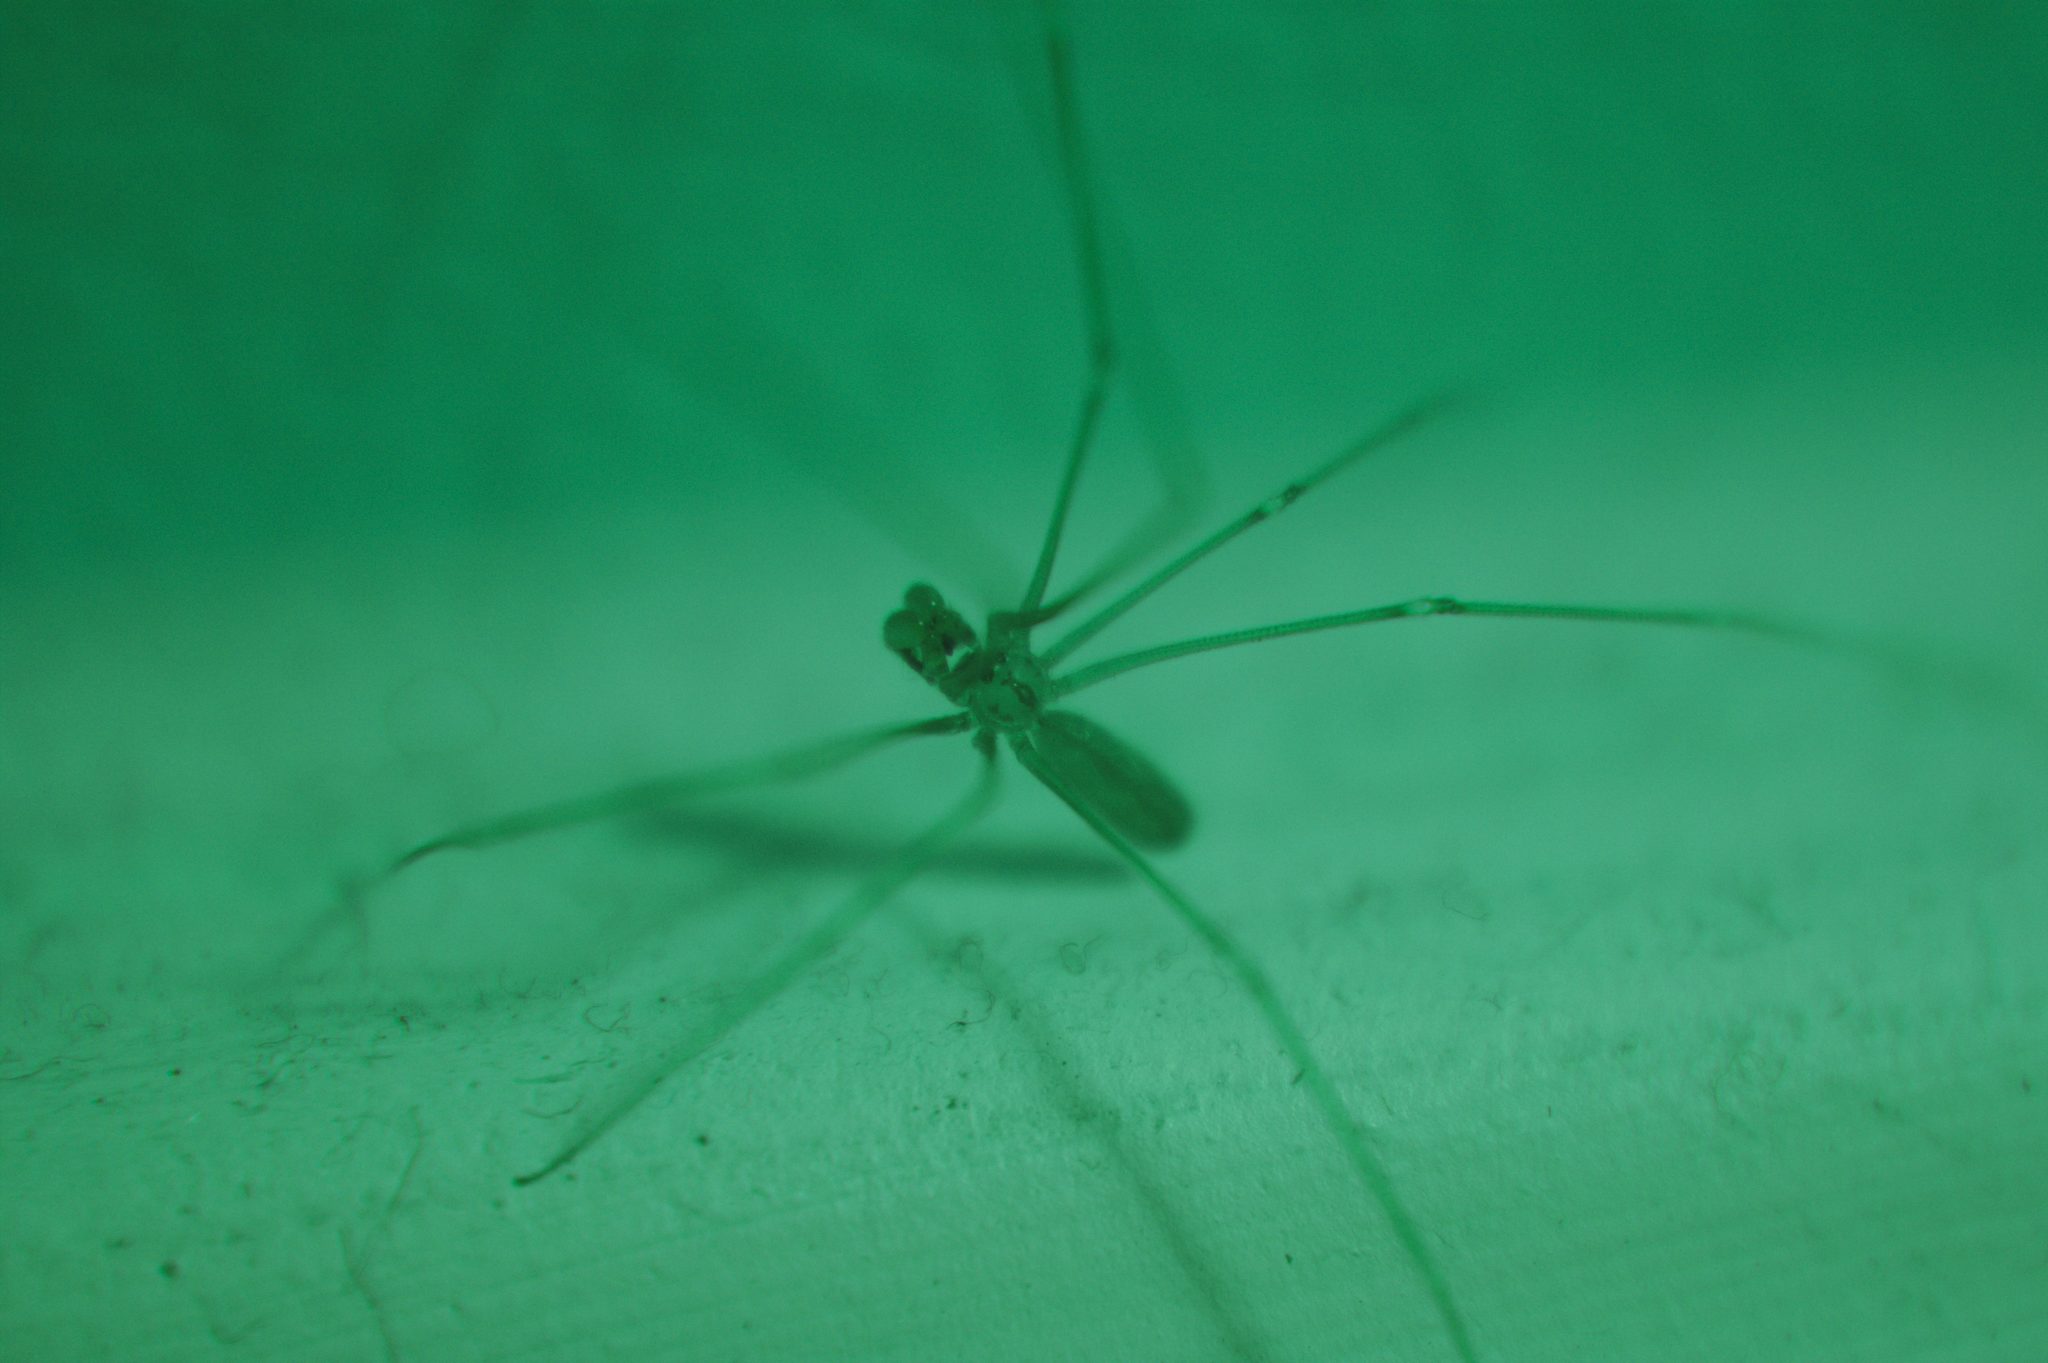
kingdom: Animalia
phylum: Arthropoda
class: Arachnida
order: Araneae
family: Pholcidae
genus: Pholcus
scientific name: Pholcus opilionoides
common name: Daddylongleg spider
